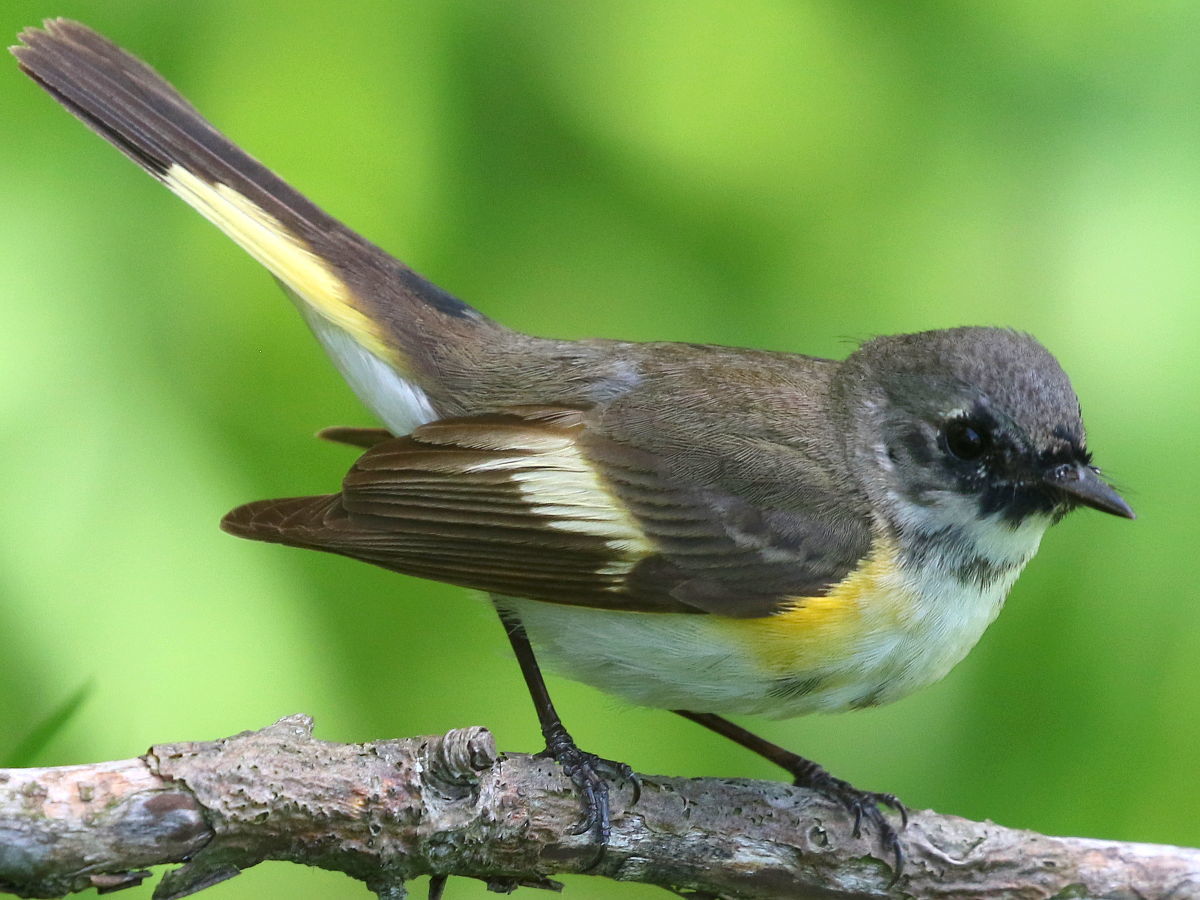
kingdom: Animalia
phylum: Chordata
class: Aves
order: Passeriformes
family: Parulidae
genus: Setophaga
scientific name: Setophaga ruticilla
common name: American redstart
